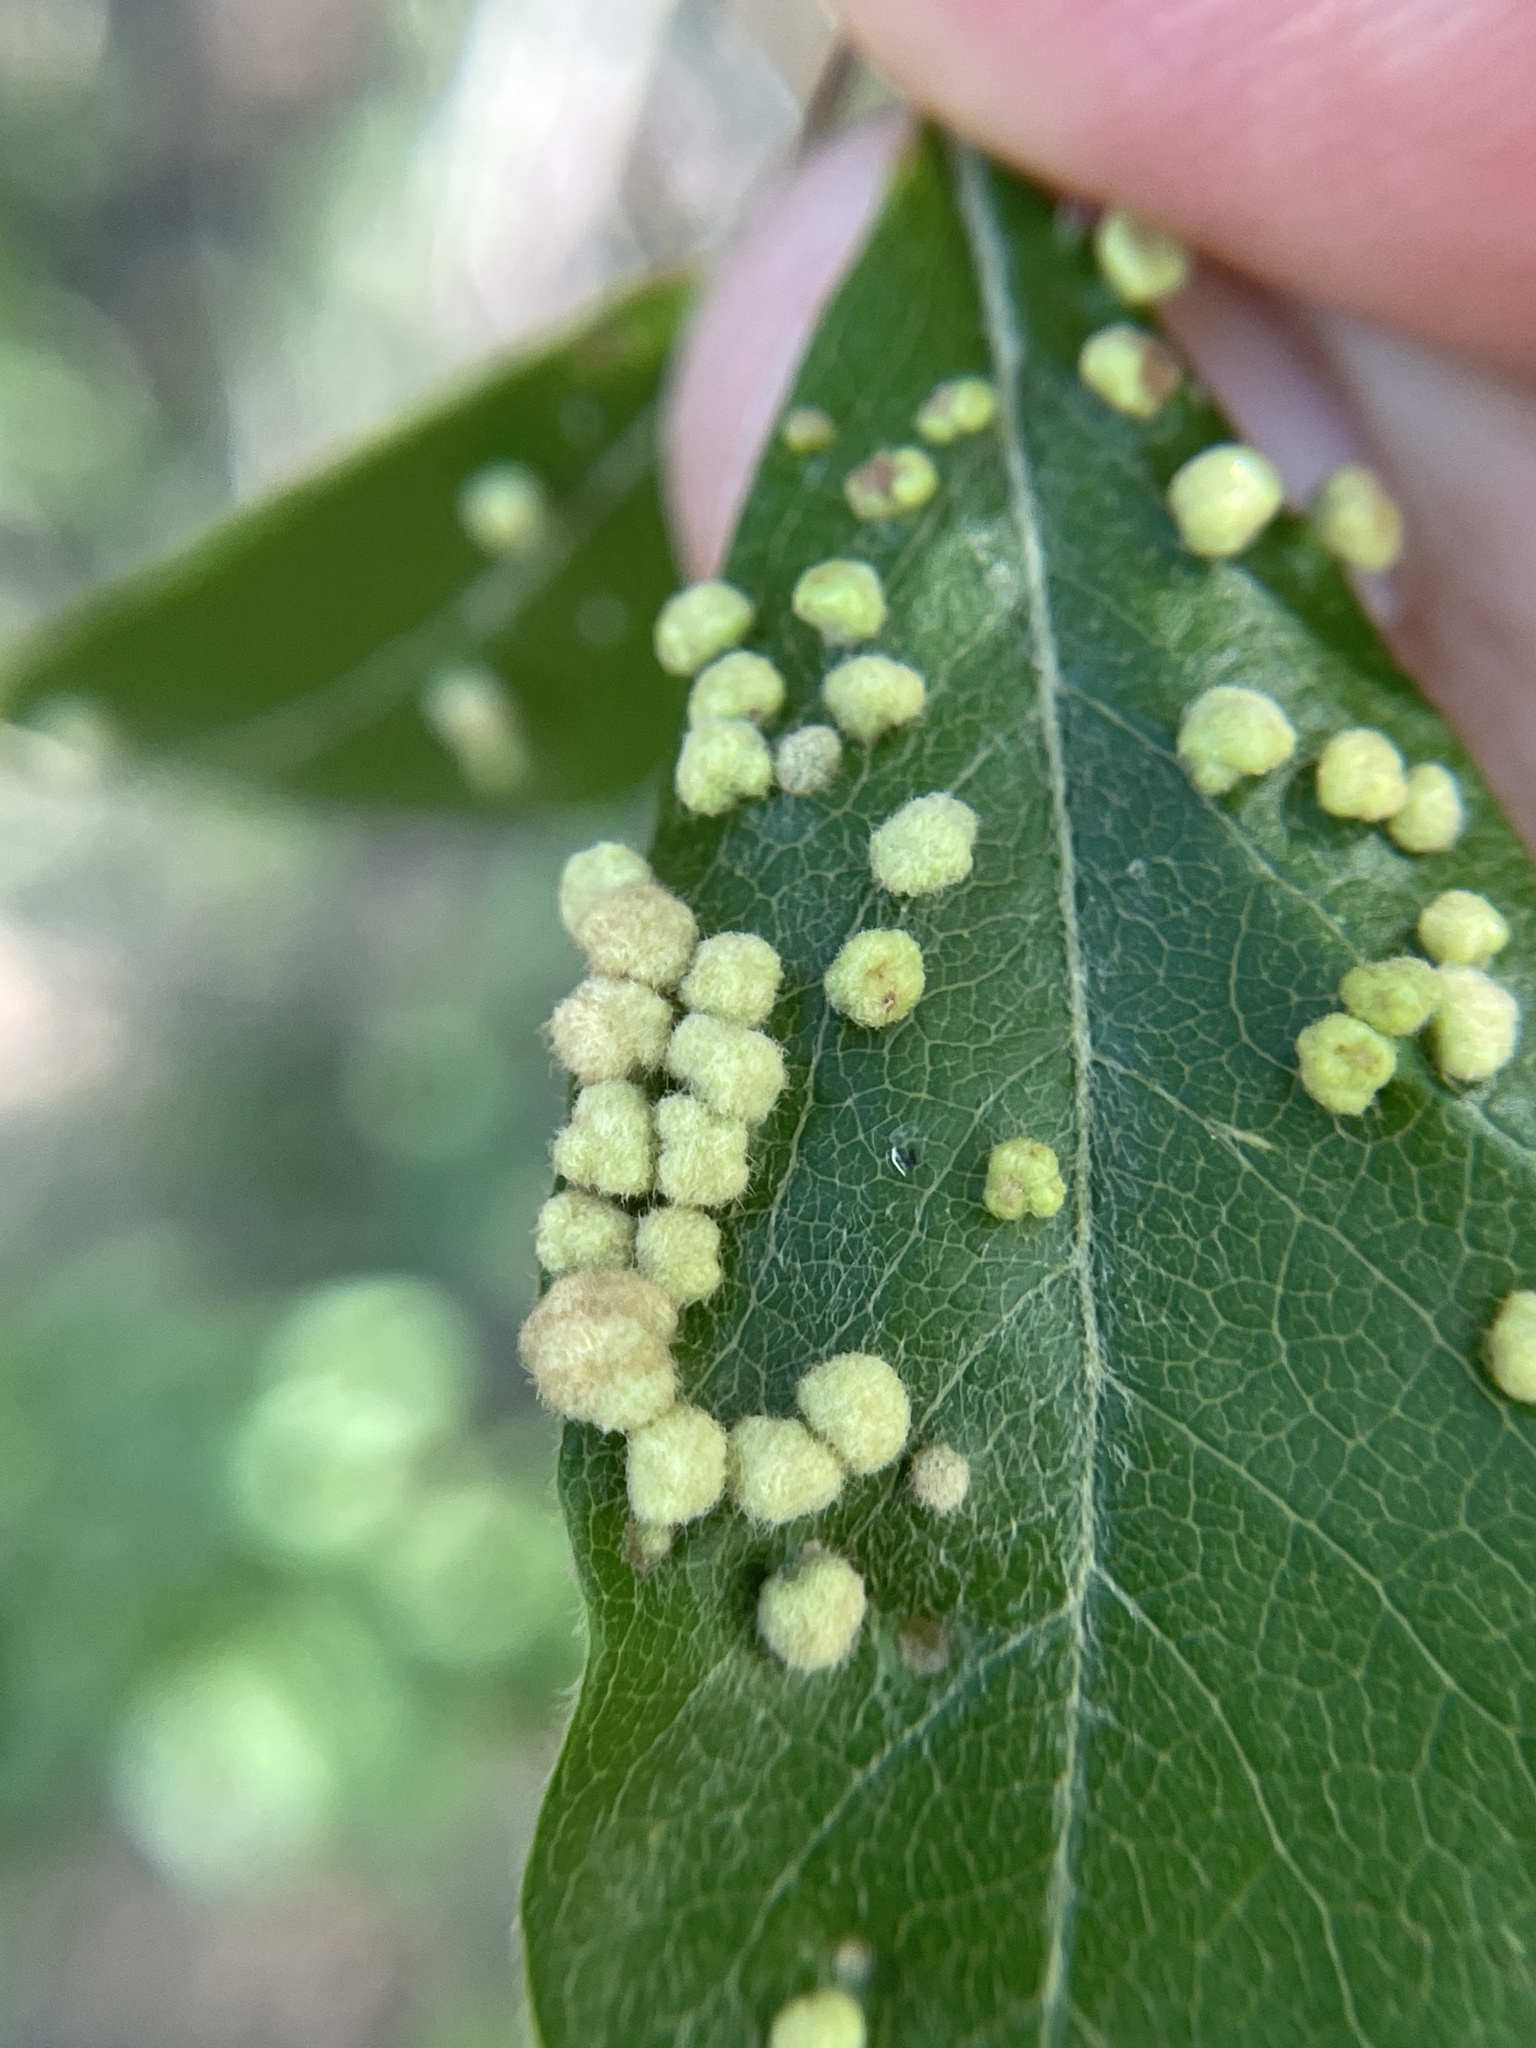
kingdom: Animalia
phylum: Arthropoda
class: Arachnida
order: Trombidiformes
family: Eriophyidae
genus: Aceria
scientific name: Aceria
